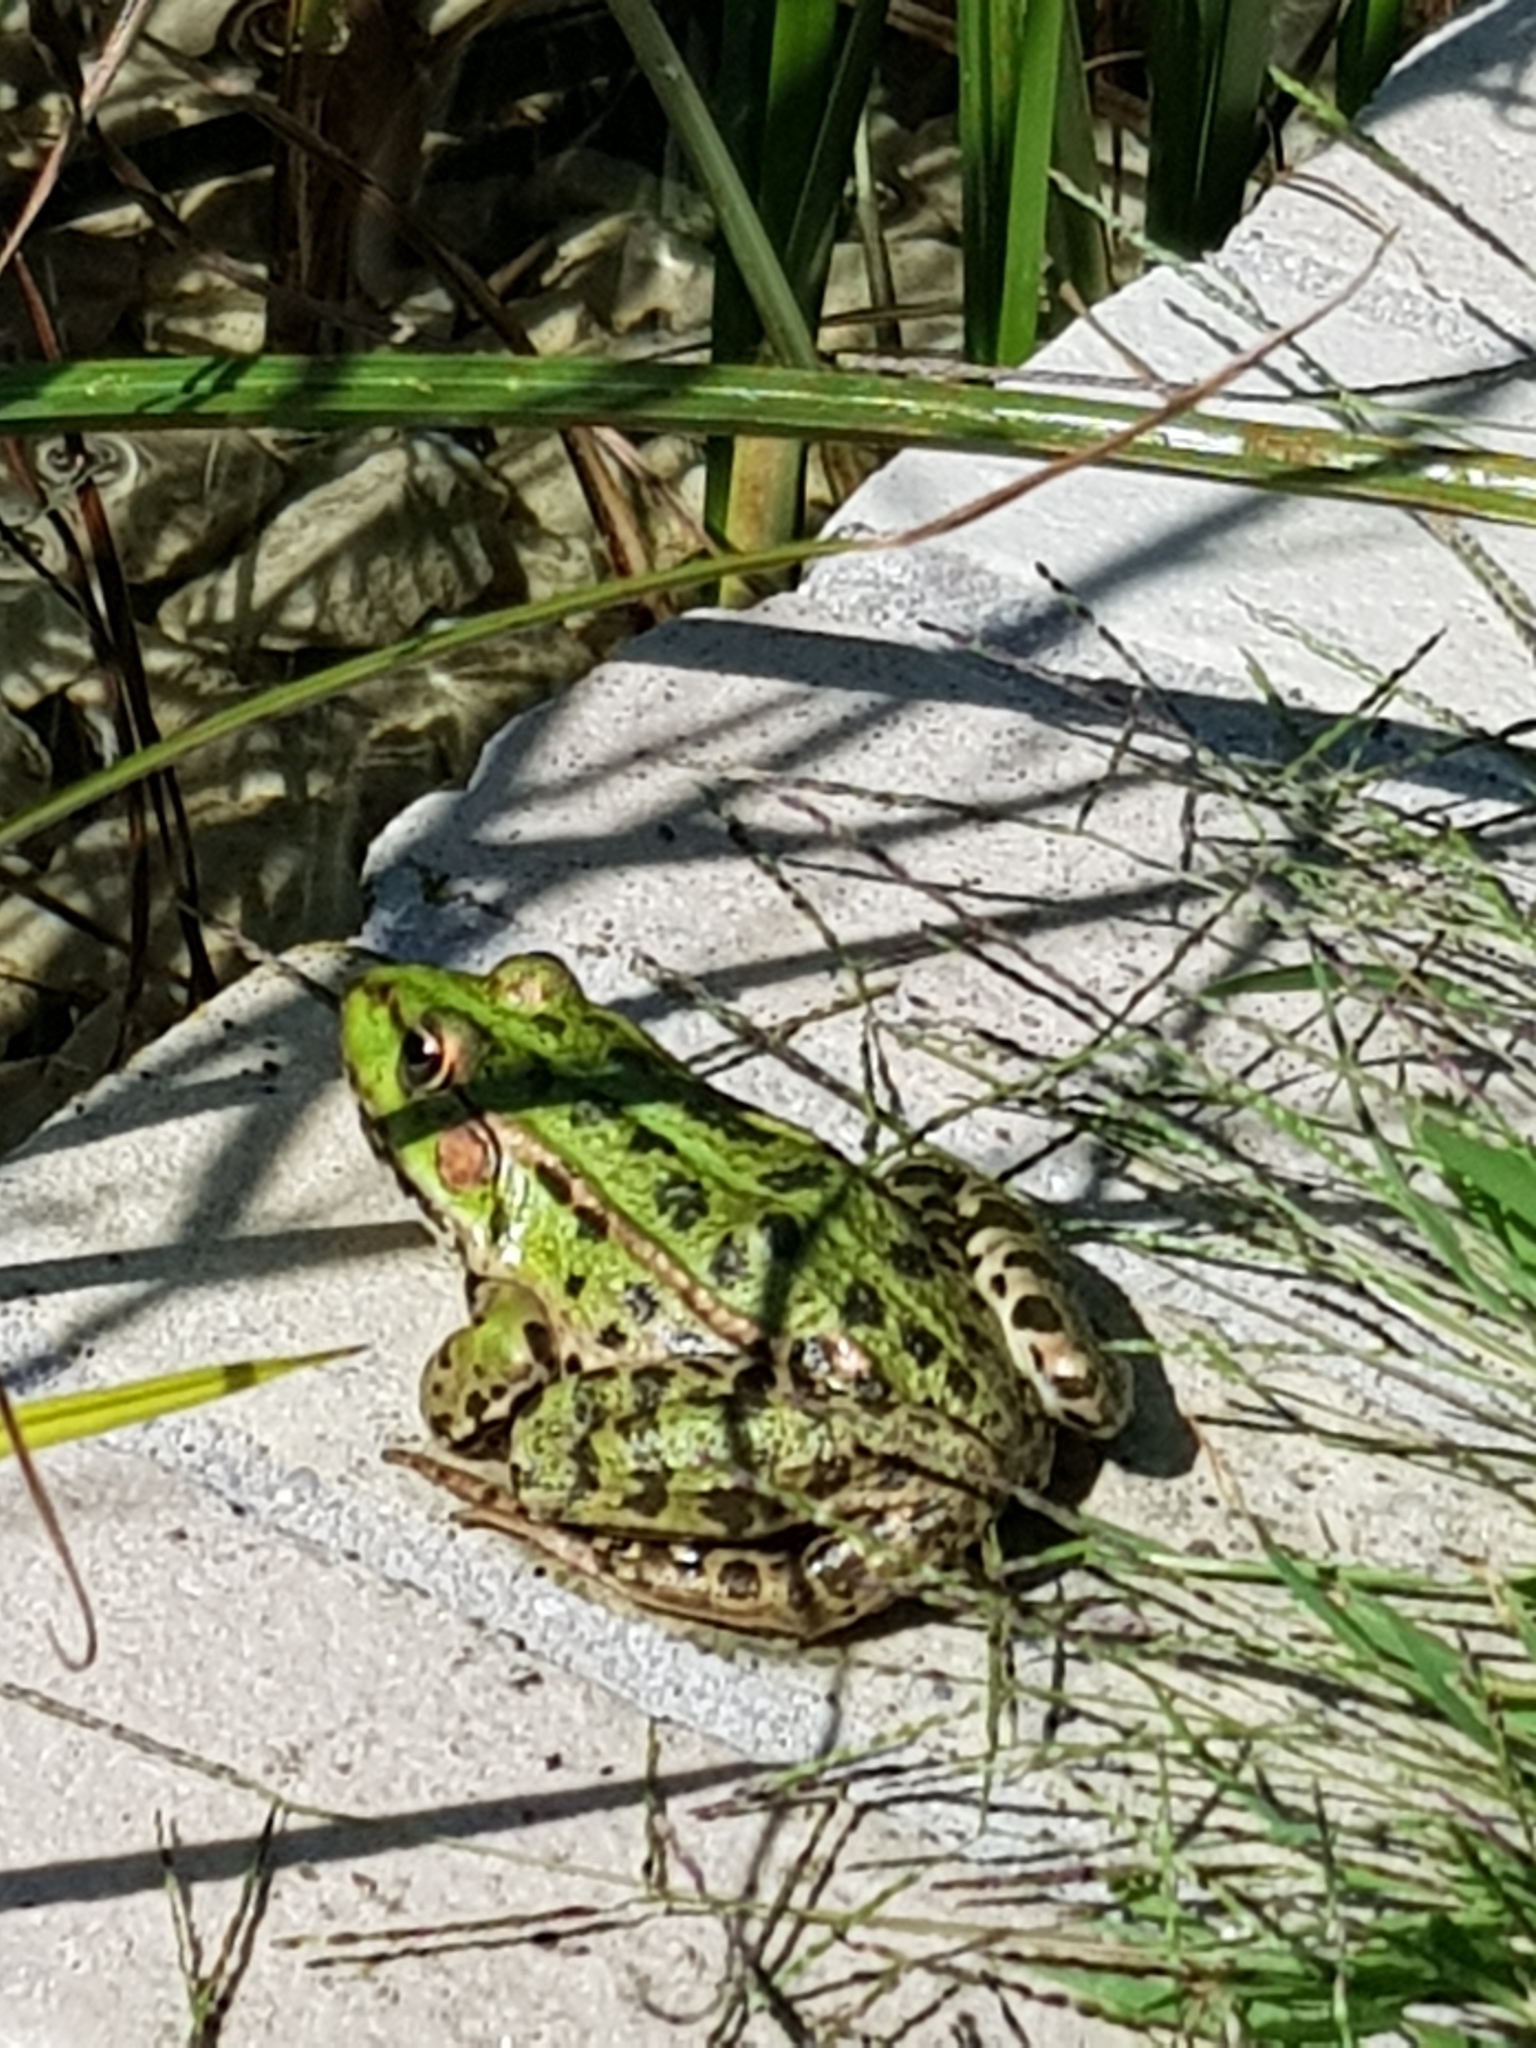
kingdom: Animalia
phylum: Chordata
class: Amphibia
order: Anura
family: Ranidae
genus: Pelophylax
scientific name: Pelophylax
